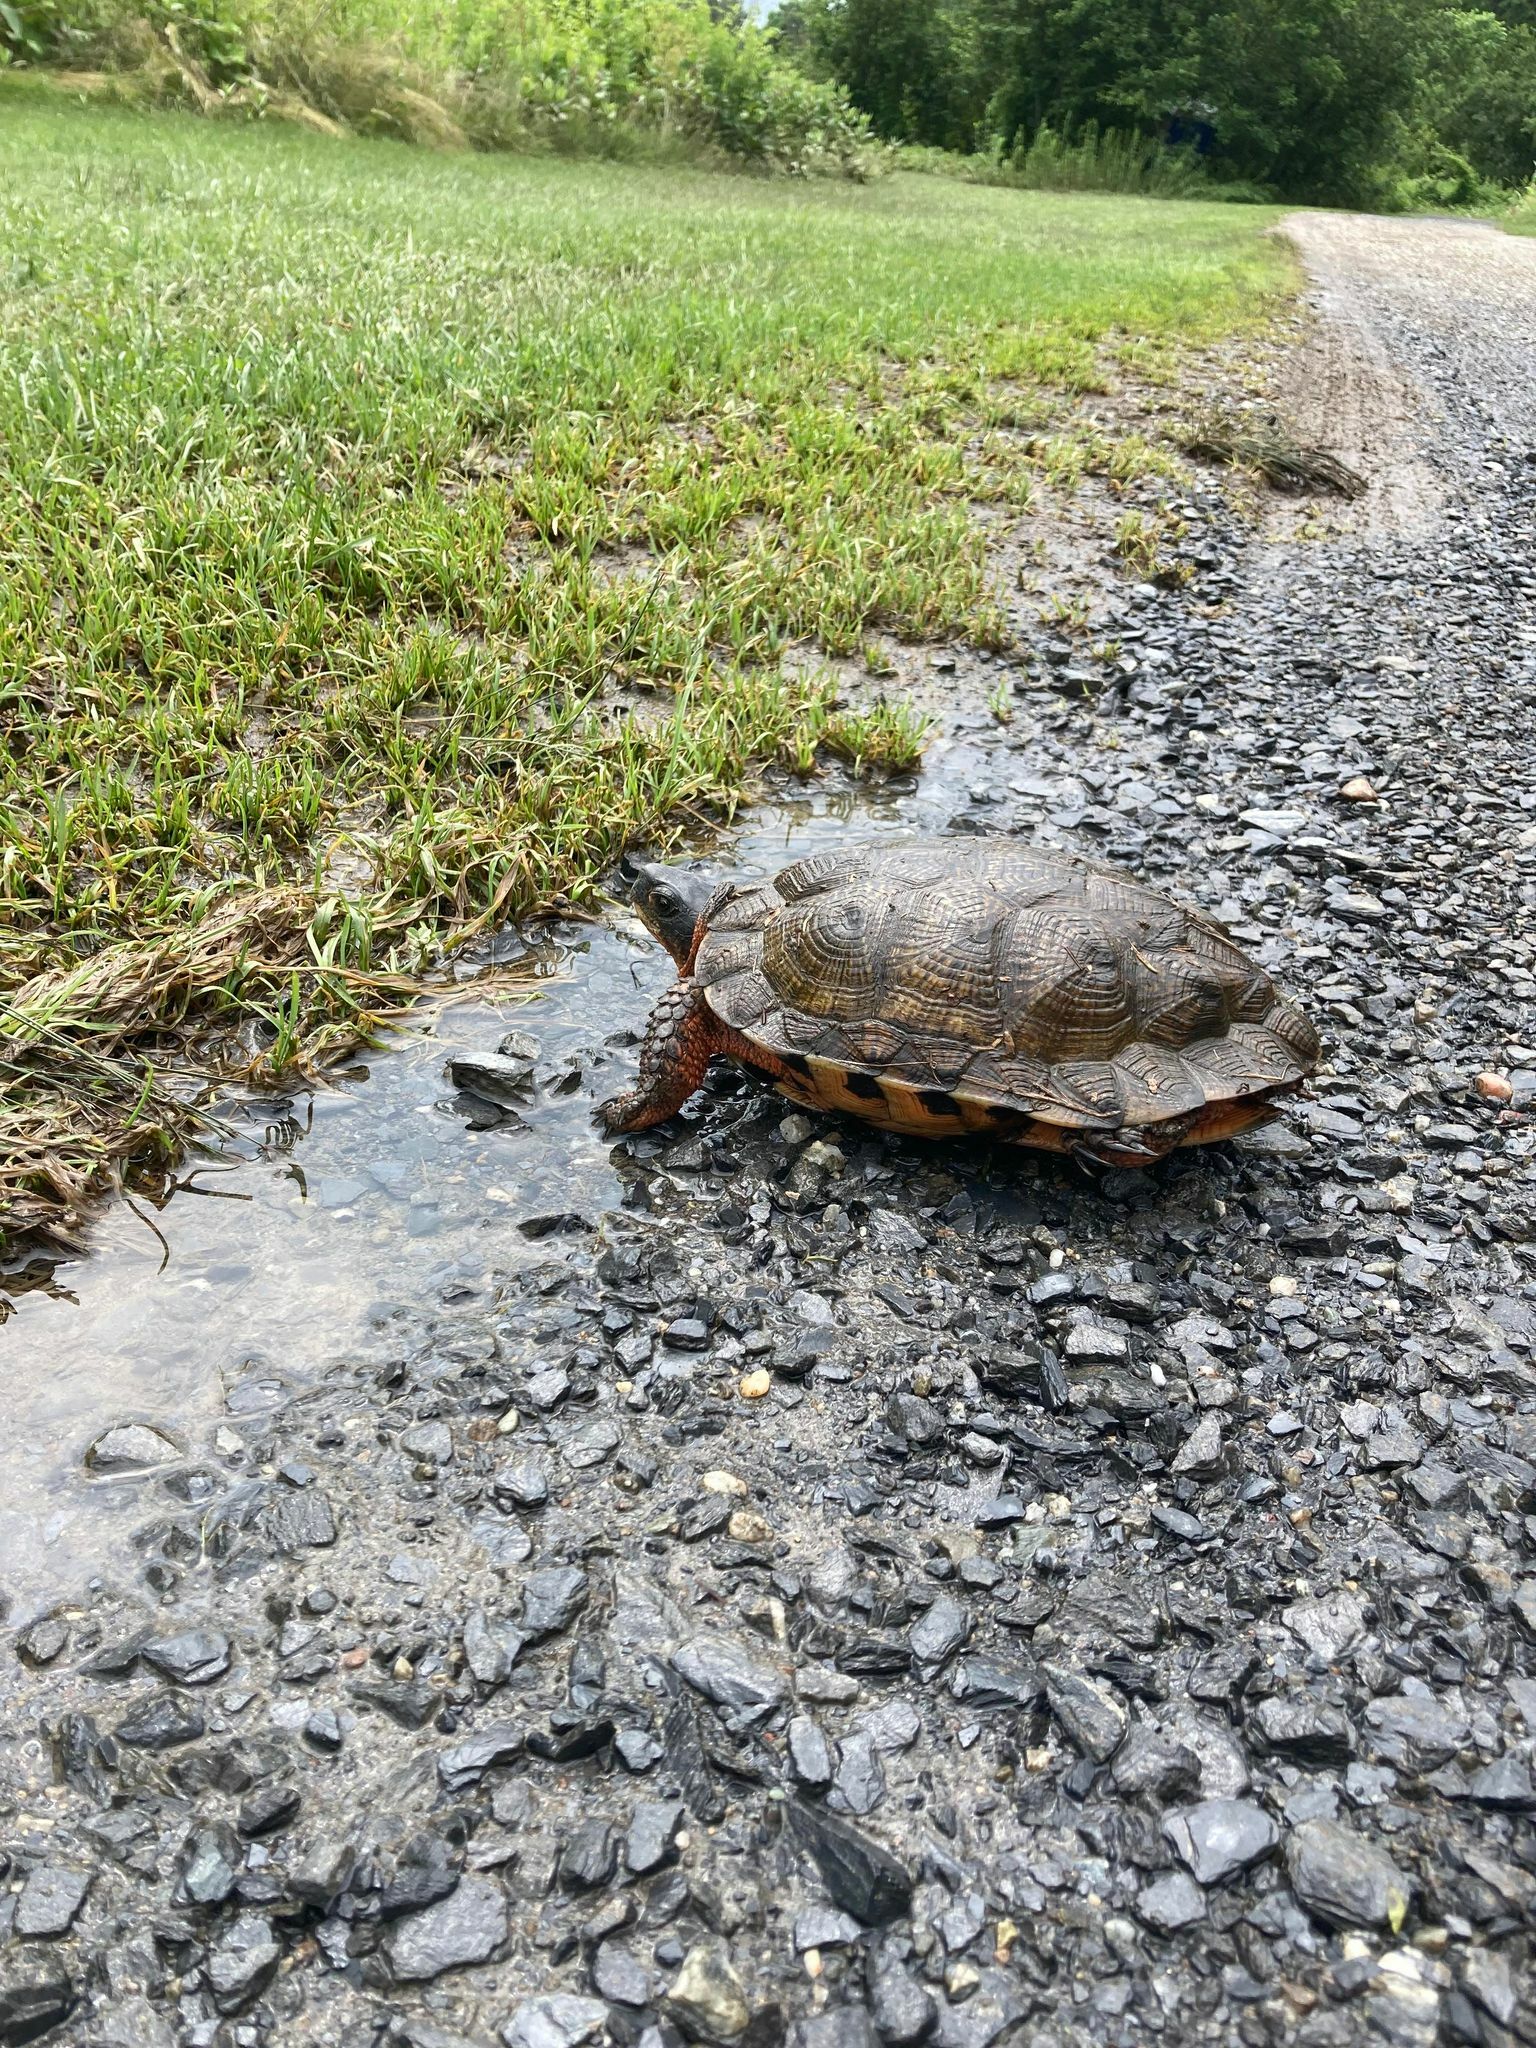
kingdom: Animalia
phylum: Chordata
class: Testudines
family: Emydidae
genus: Glyptemys
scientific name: Glyptemys insculpta
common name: Wood turtle
